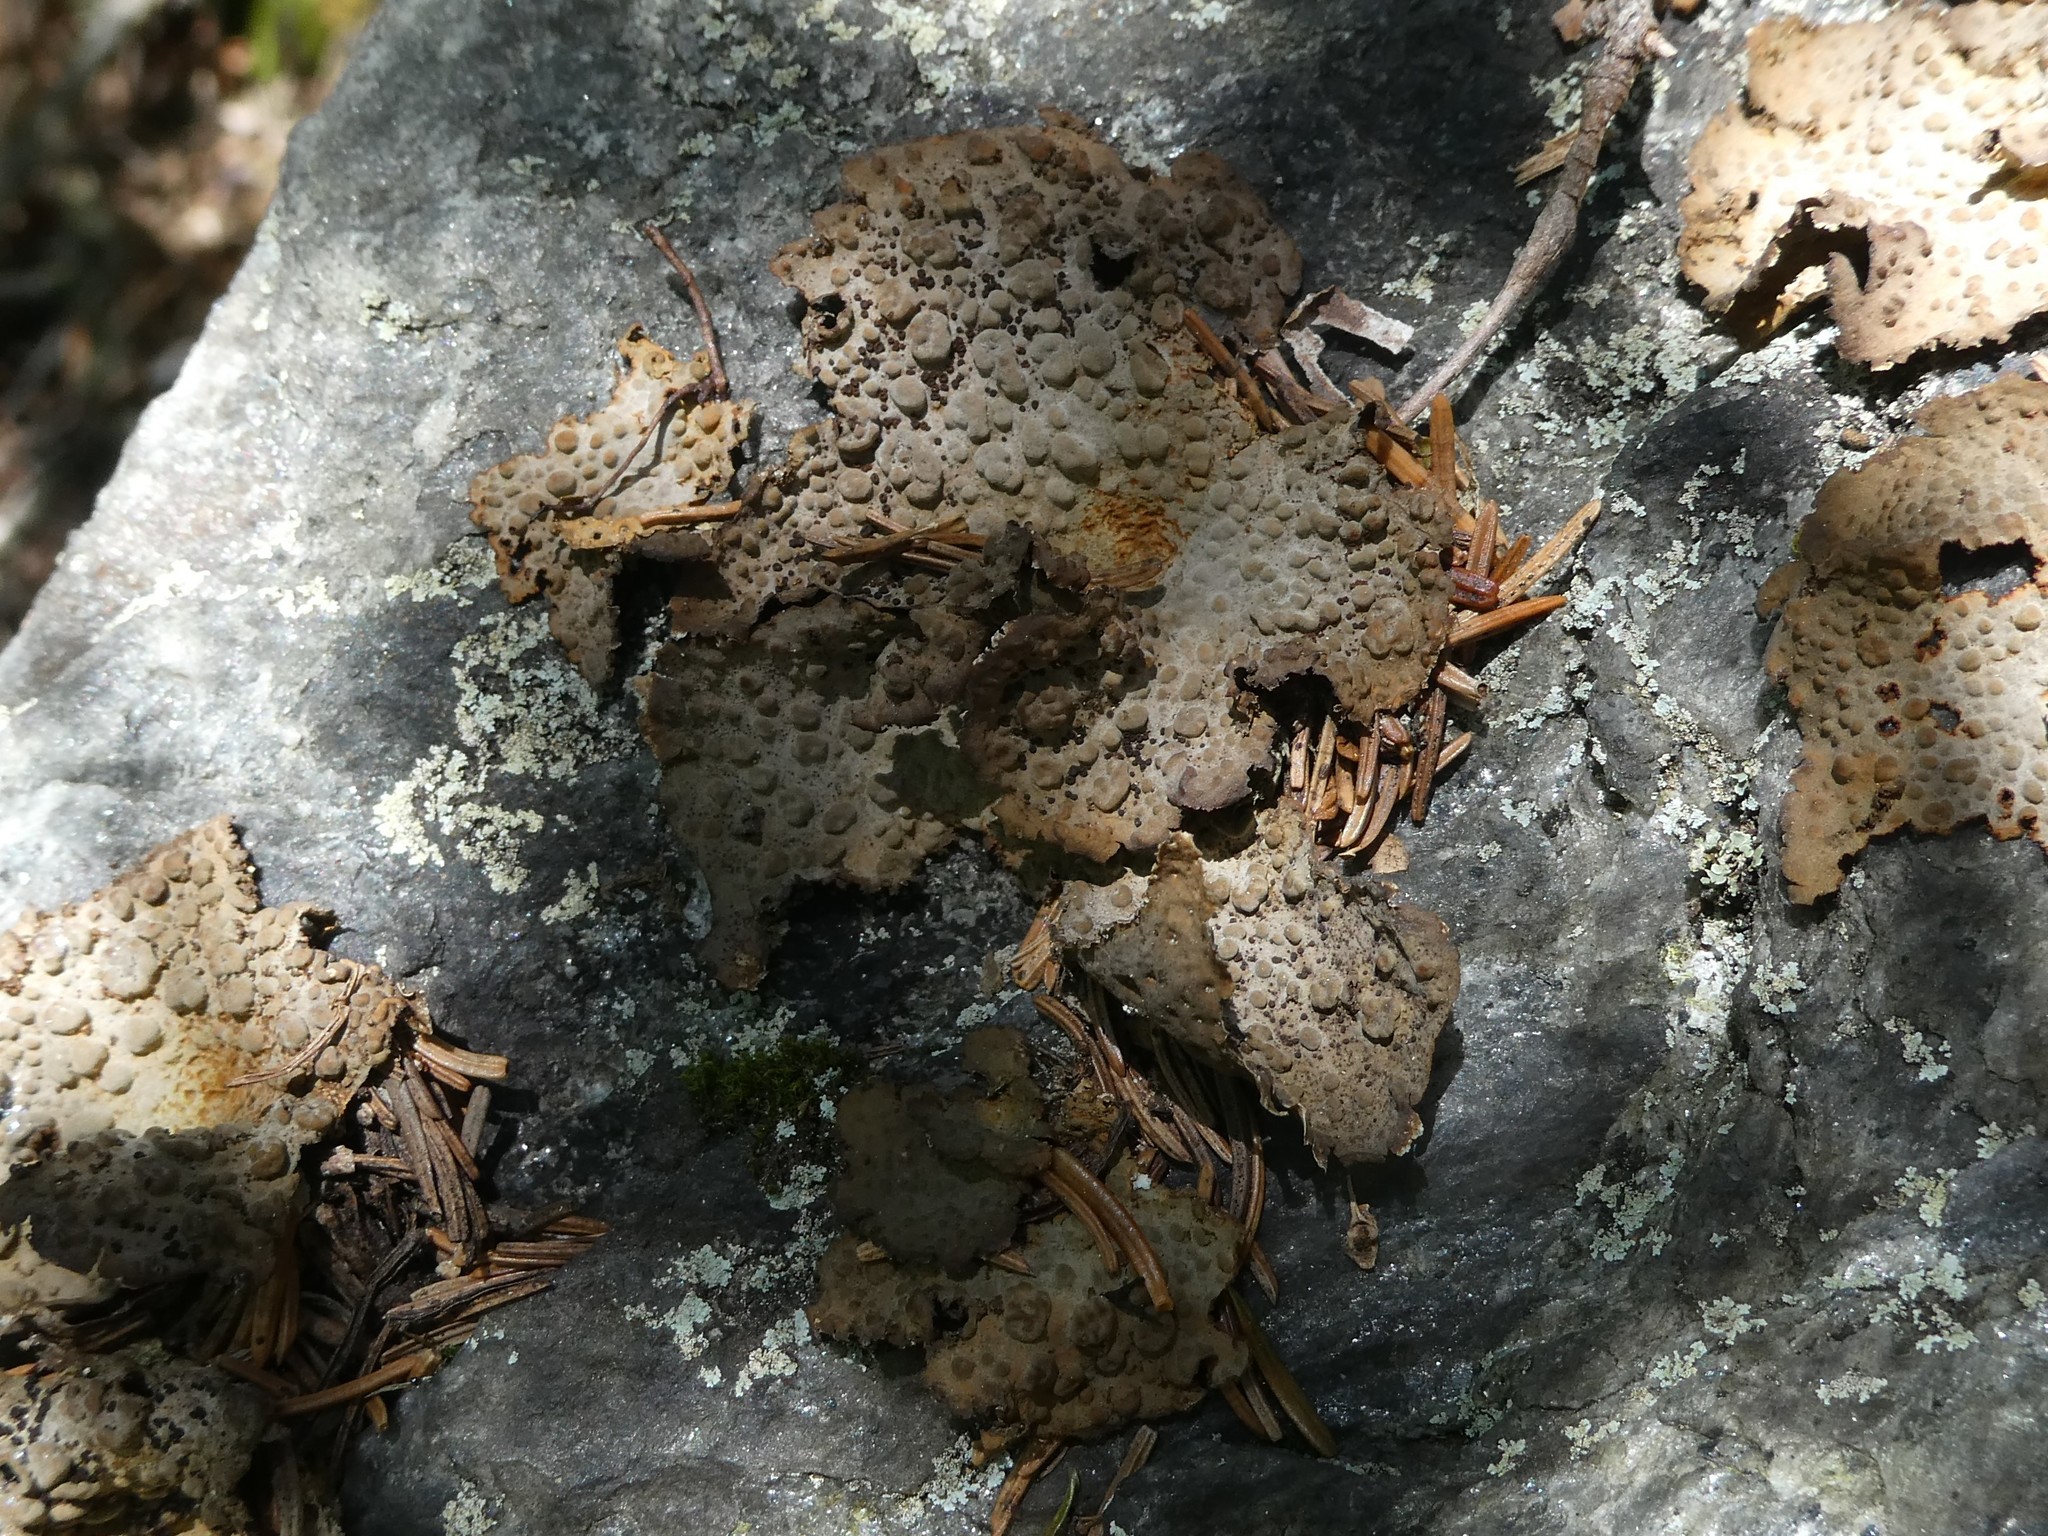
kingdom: Fungi
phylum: Ascomycota
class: Lecanoromycetes
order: Umbilicariales
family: Umbilicariaceae
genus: Lasallia
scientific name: Lasallia papulosa
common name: Common toadskin lichen
